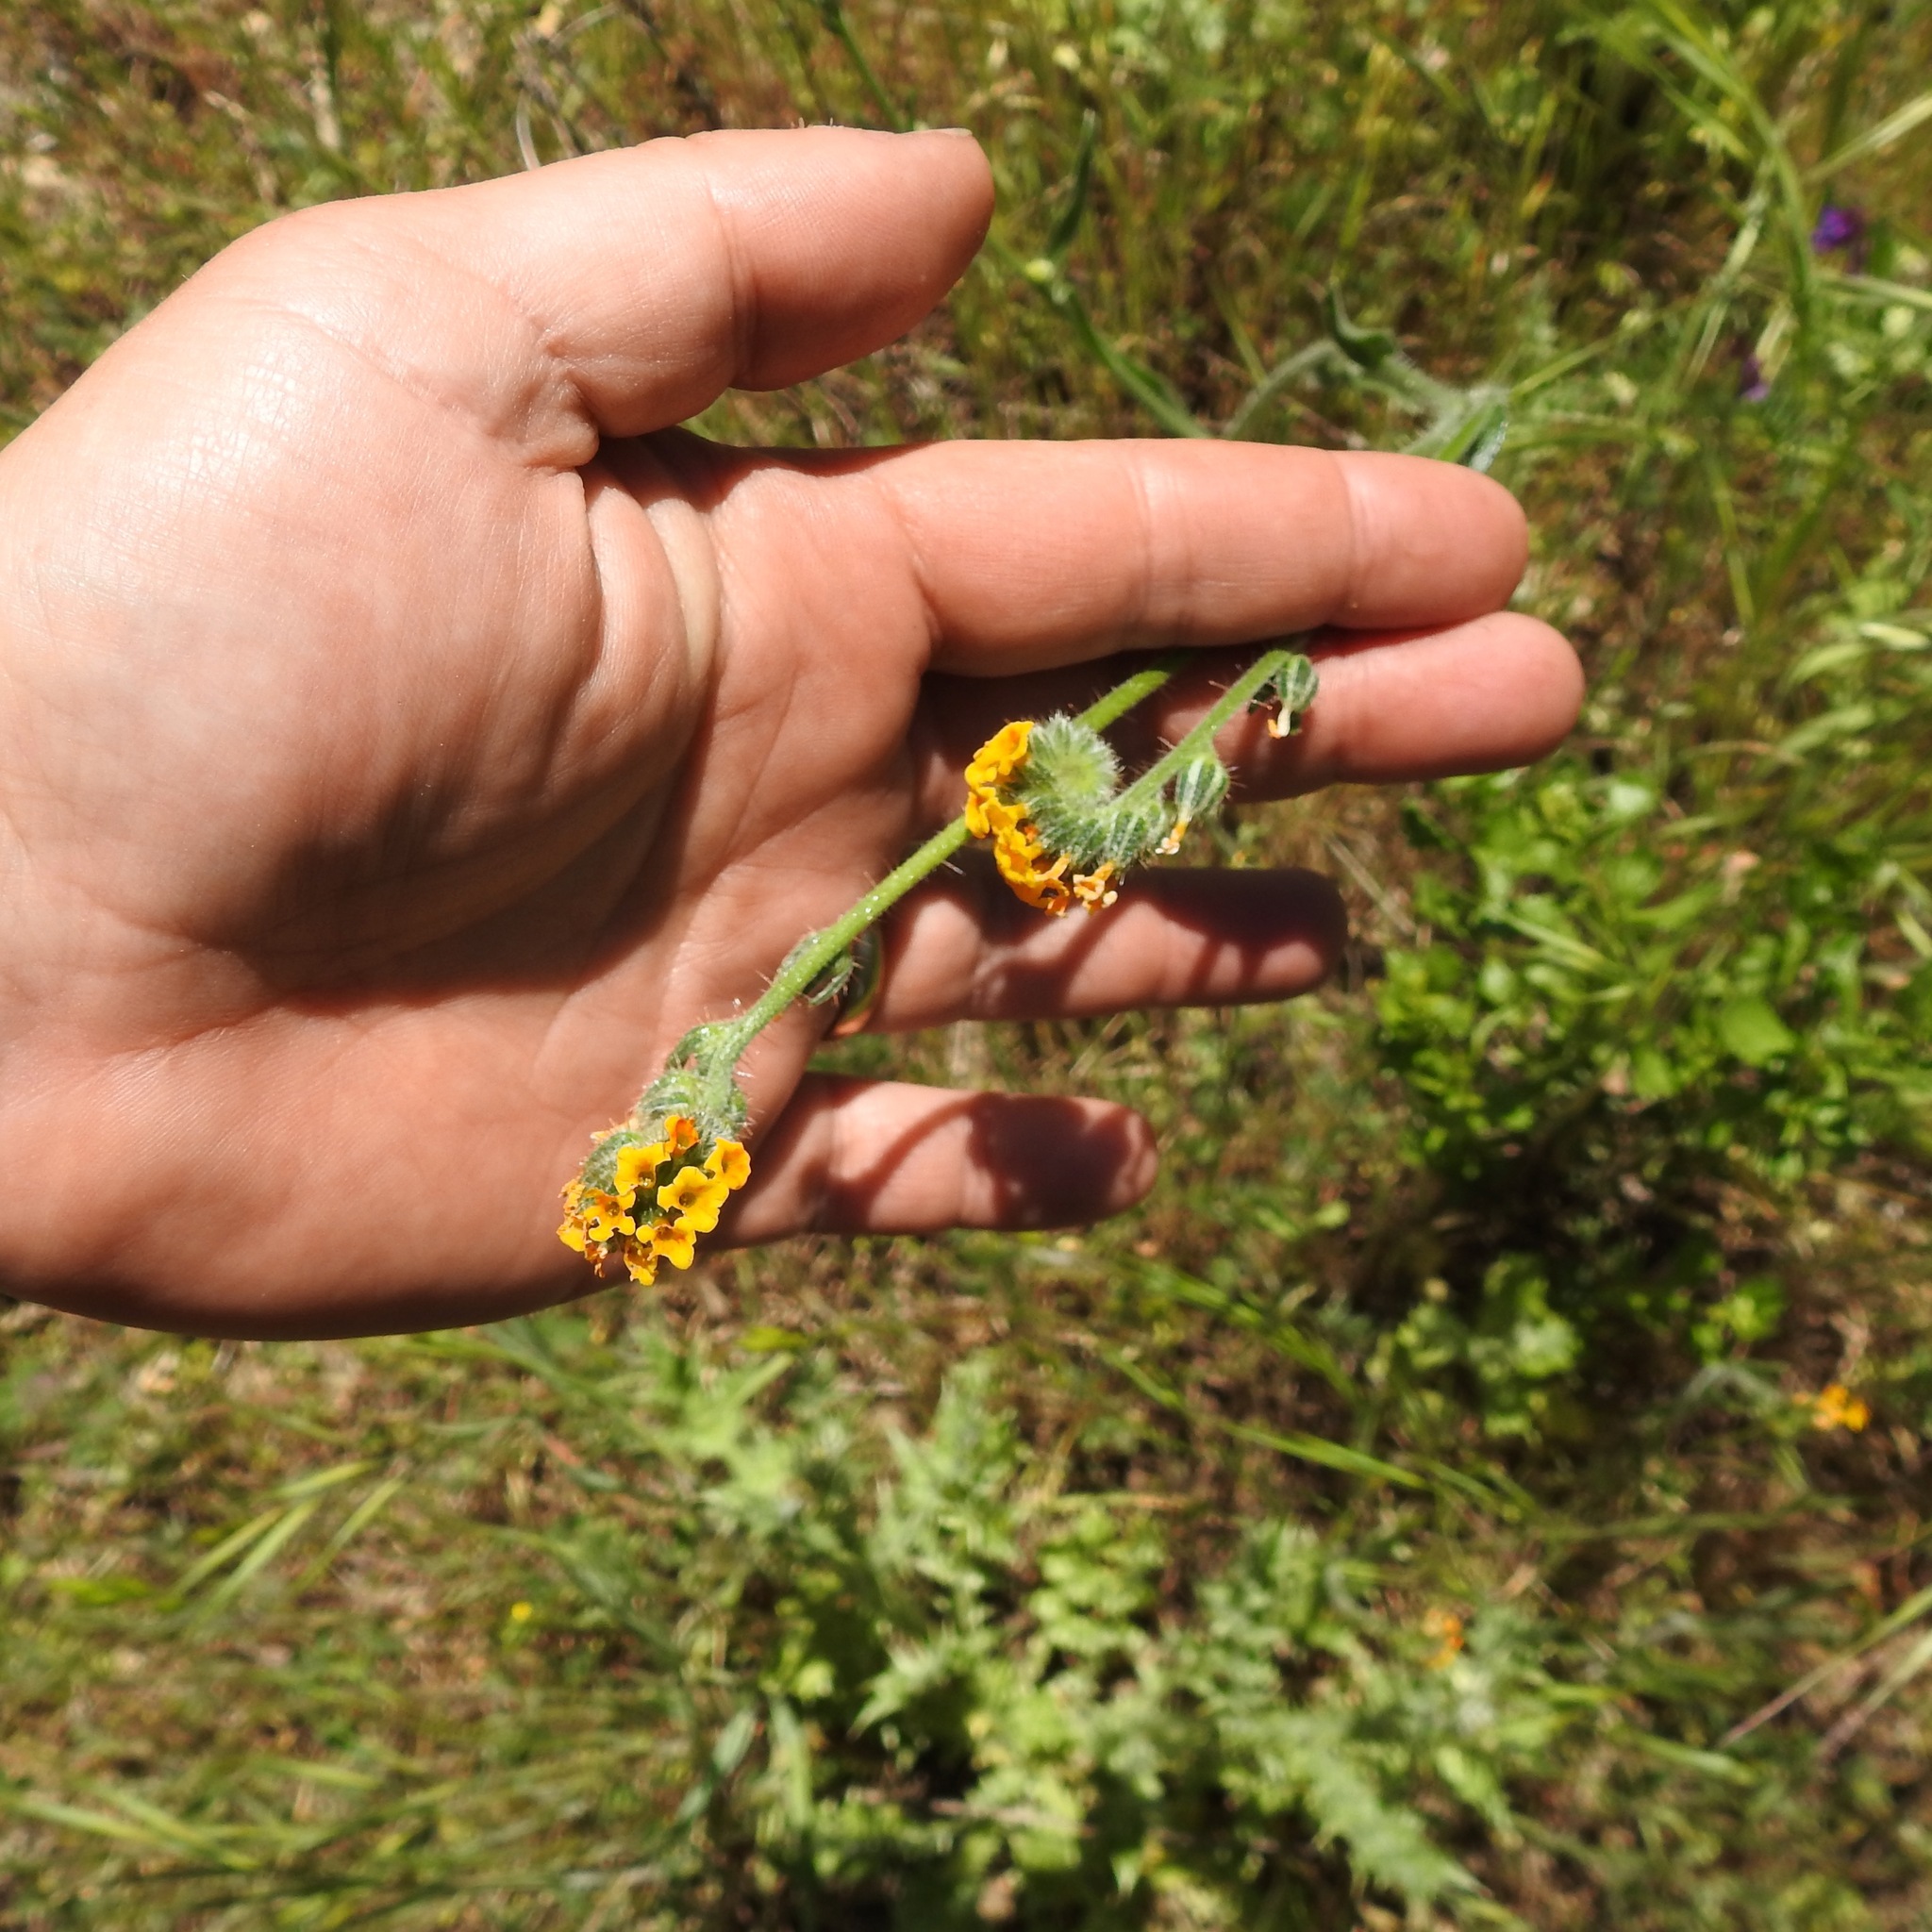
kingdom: Plantae
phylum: Tracheophyta
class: Magnoliopsida
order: Boraginales
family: Boraginaceae
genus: Amsinckia
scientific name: Amsinckia menziesii
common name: Menzies' fiddleneck
